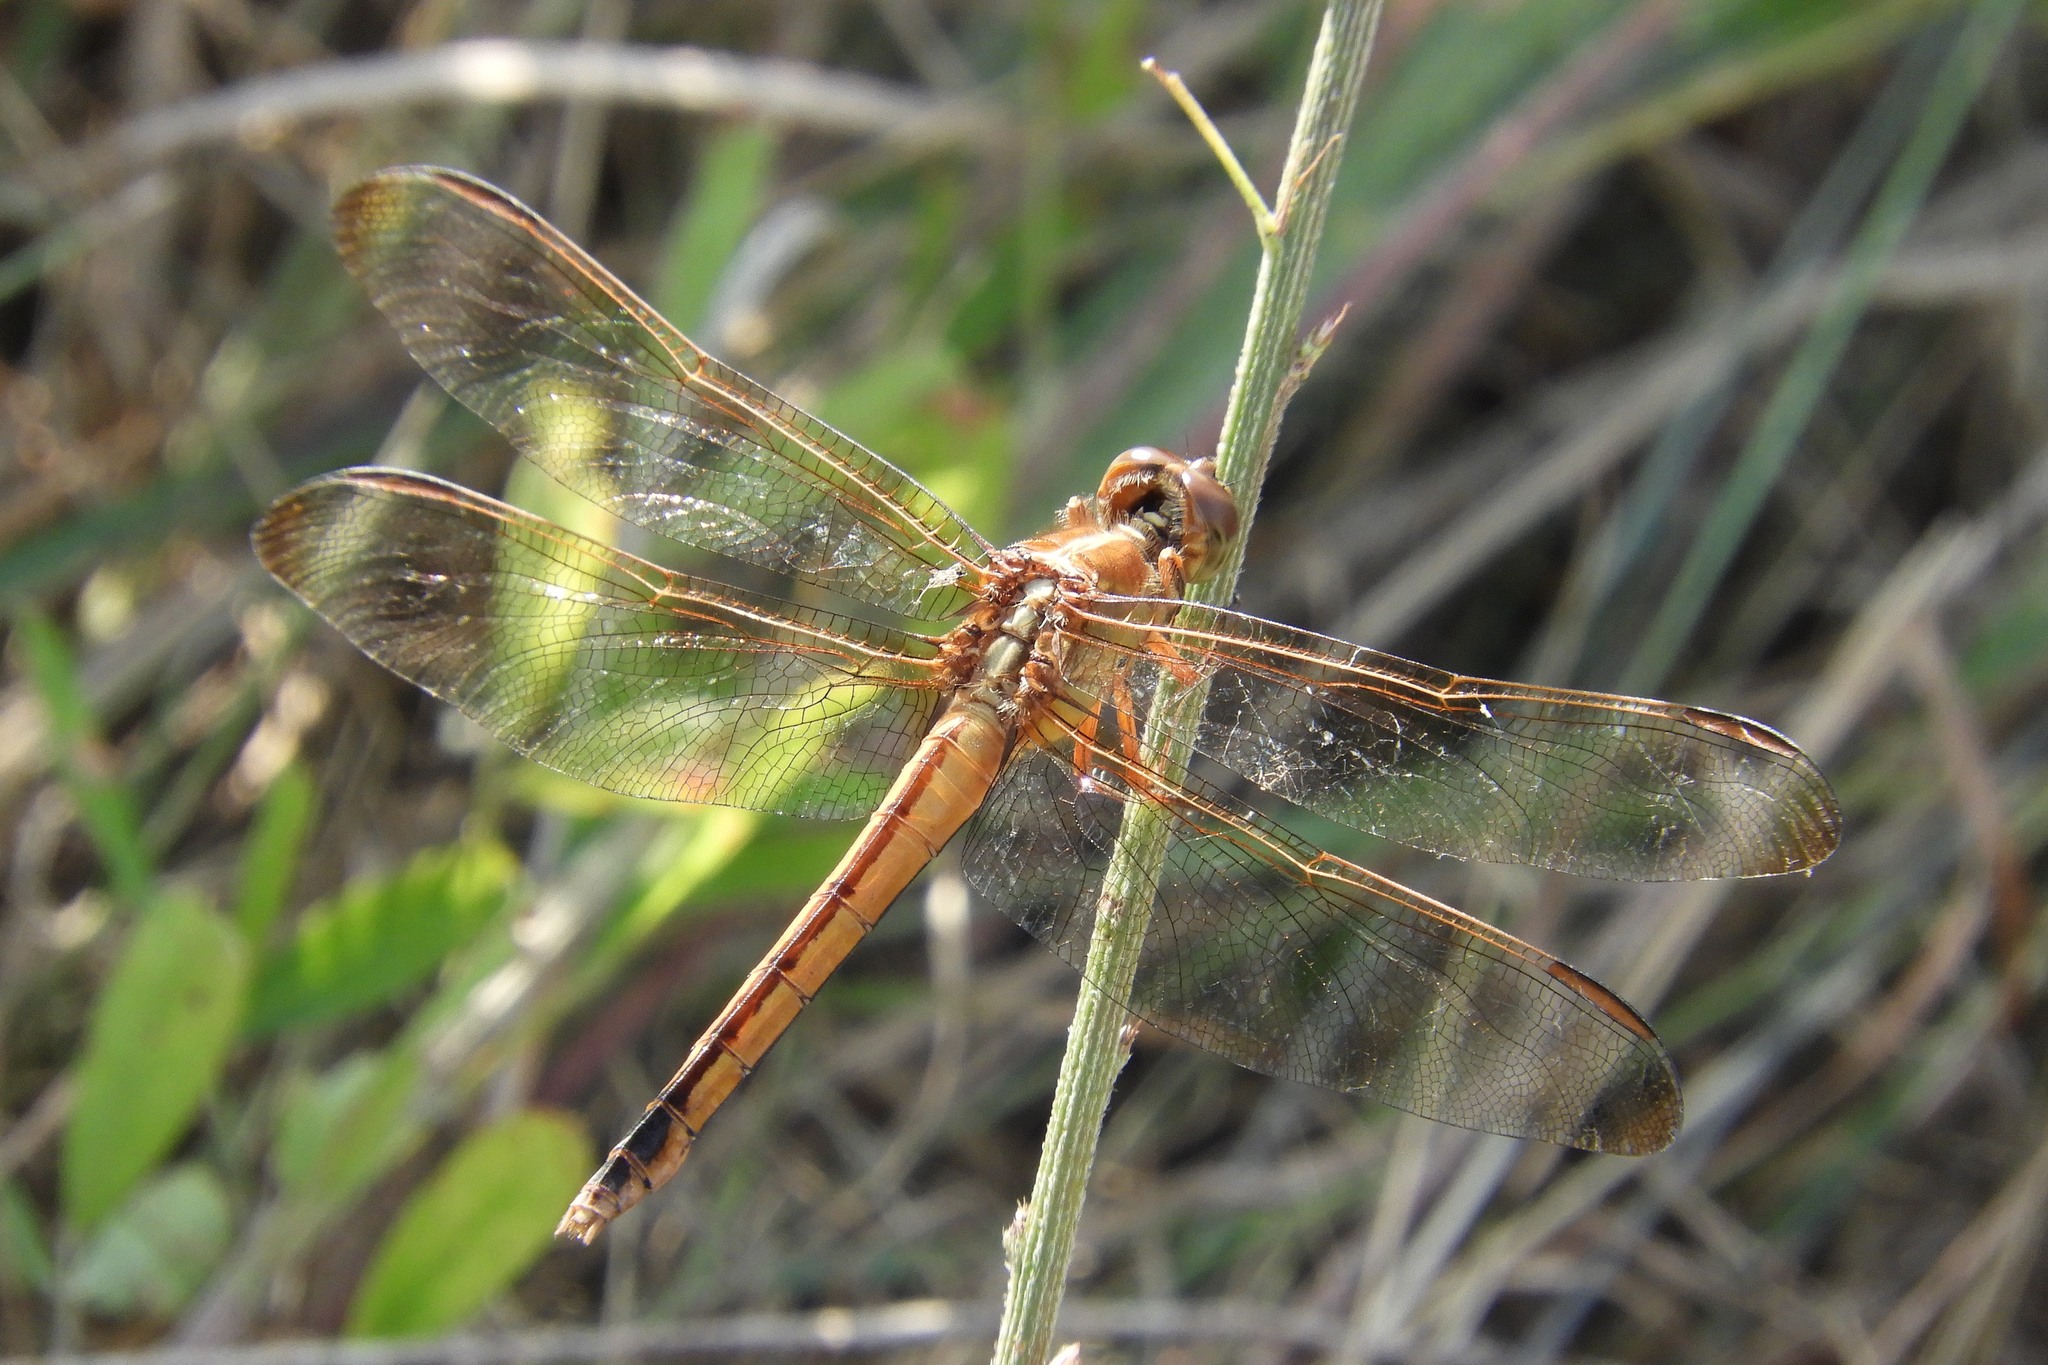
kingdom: Animalia
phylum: Arthropoda
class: Insecta
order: Odonata
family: Libellulidae
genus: Libellula
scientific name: Libellula needhami
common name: Needham's skimmer
